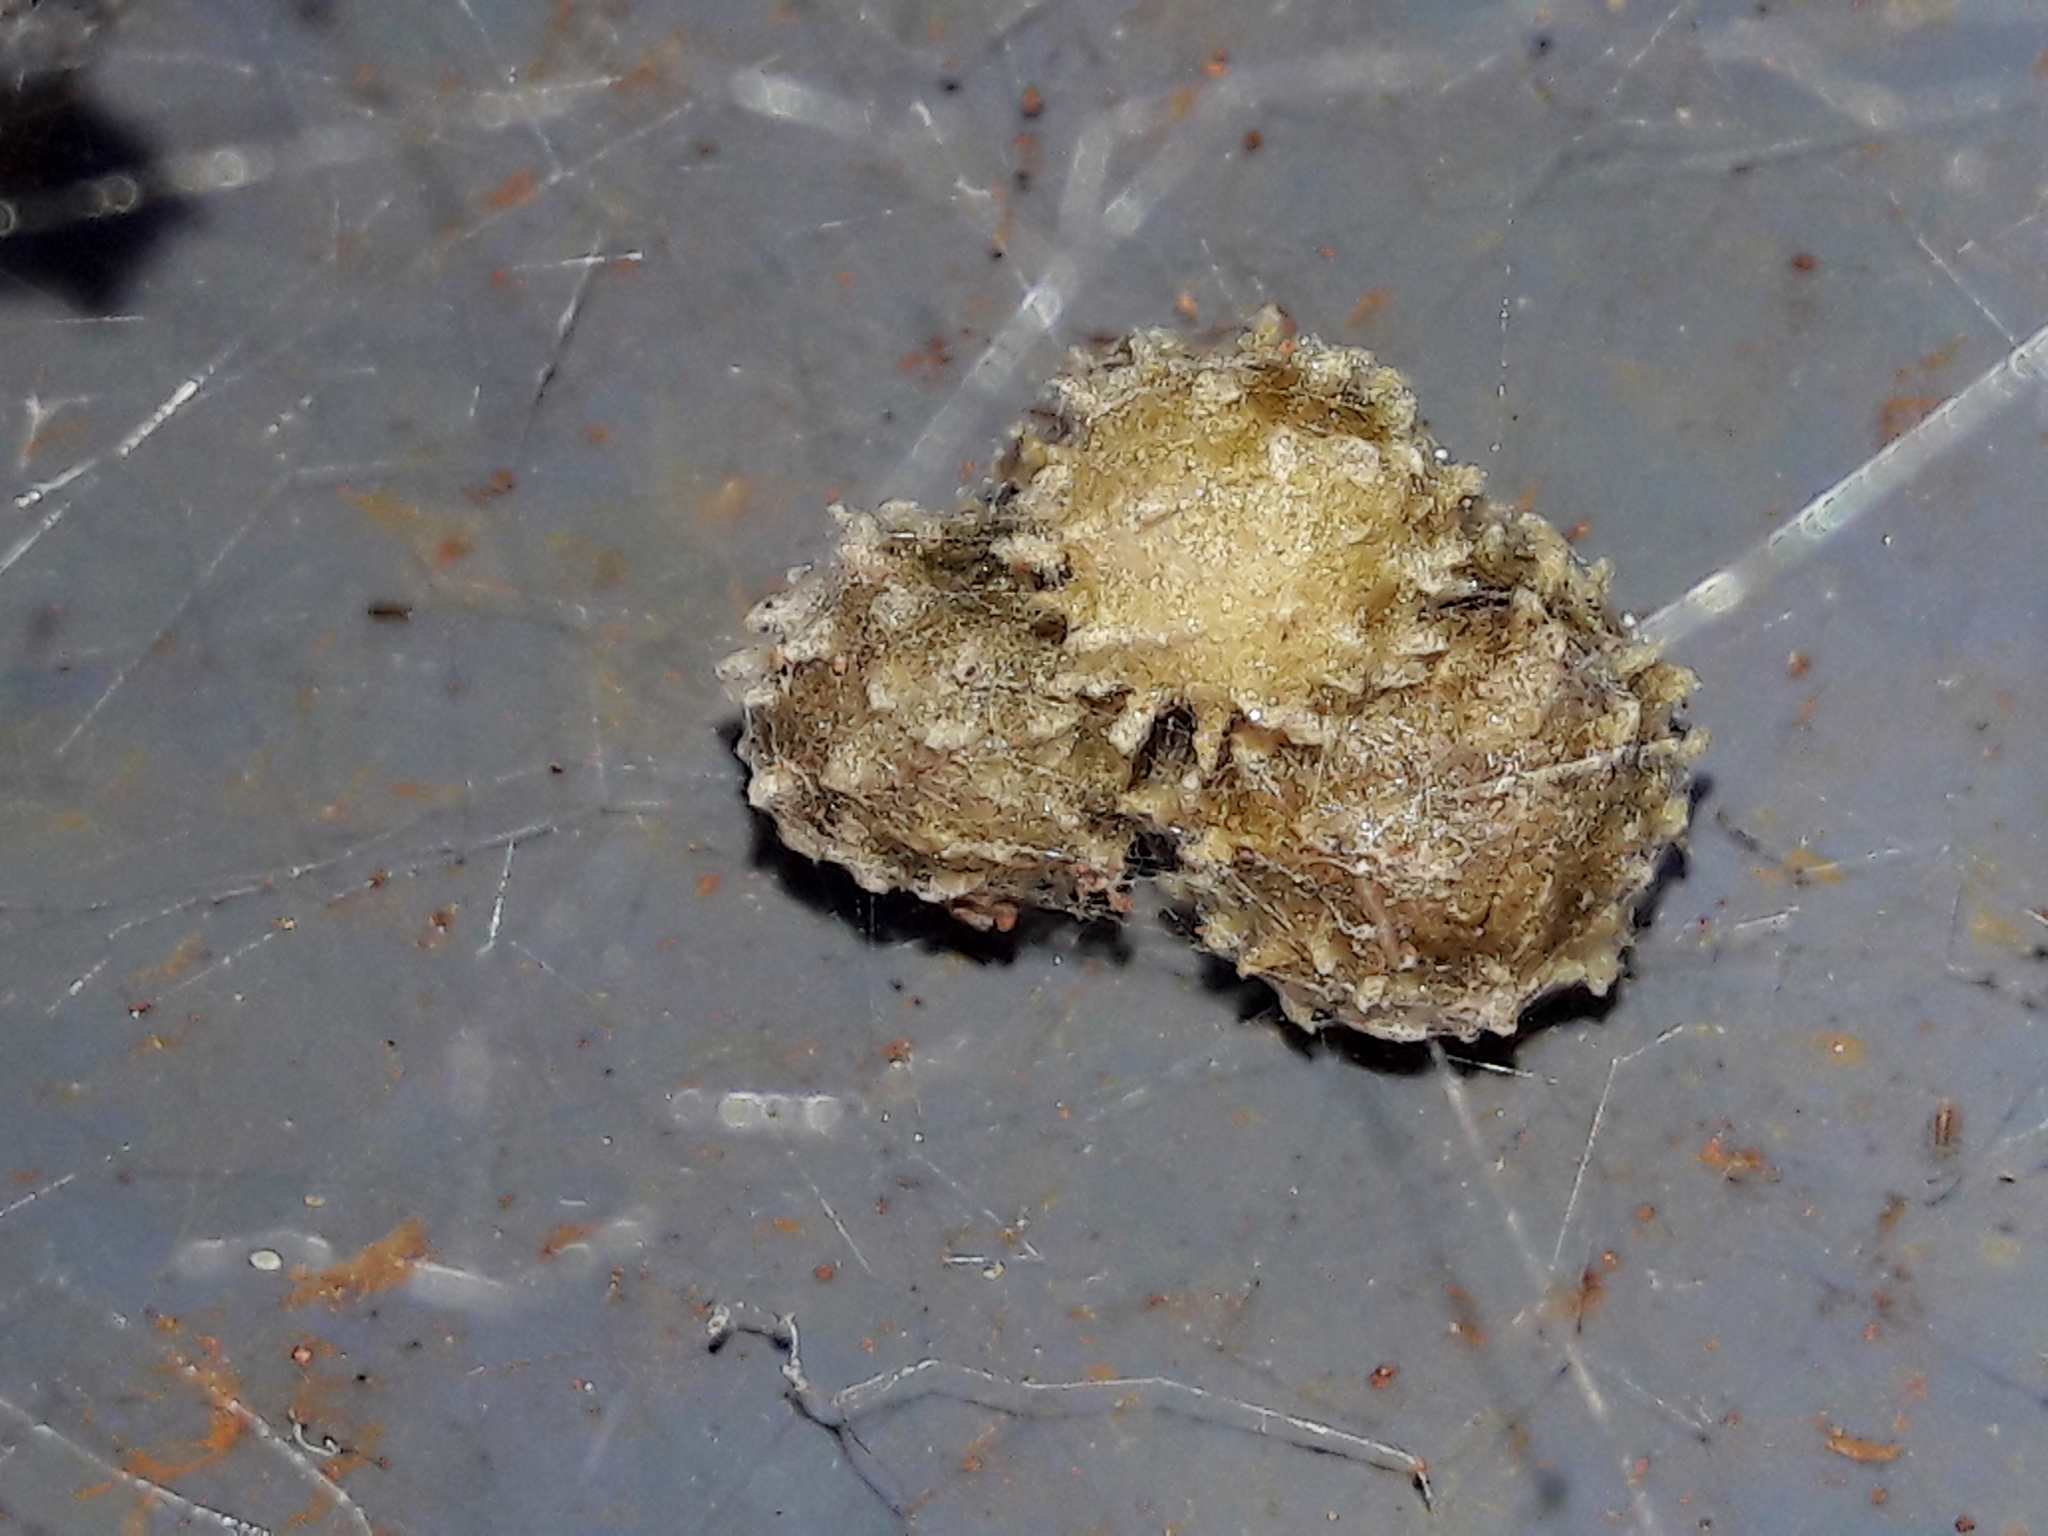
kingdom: Animalia
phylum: Arthropoda
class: Arachnida
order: Araneae
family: Theridiidae
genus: Latrodectus
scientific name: Latrodectus geometricus
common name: Brown widow spider
